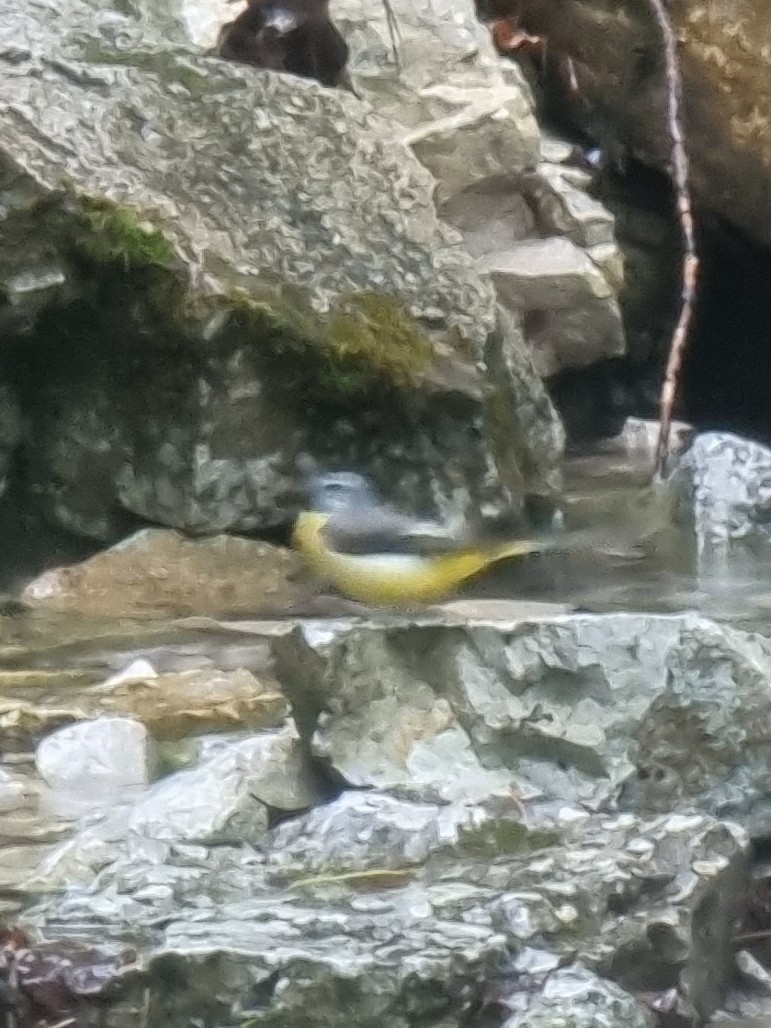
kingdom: Animalia
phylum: Chordata
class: Aves
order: Passeriformes
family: Motacillidae
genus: Motacilla
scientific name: Motacilla cinerea
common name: Grey wagtail
